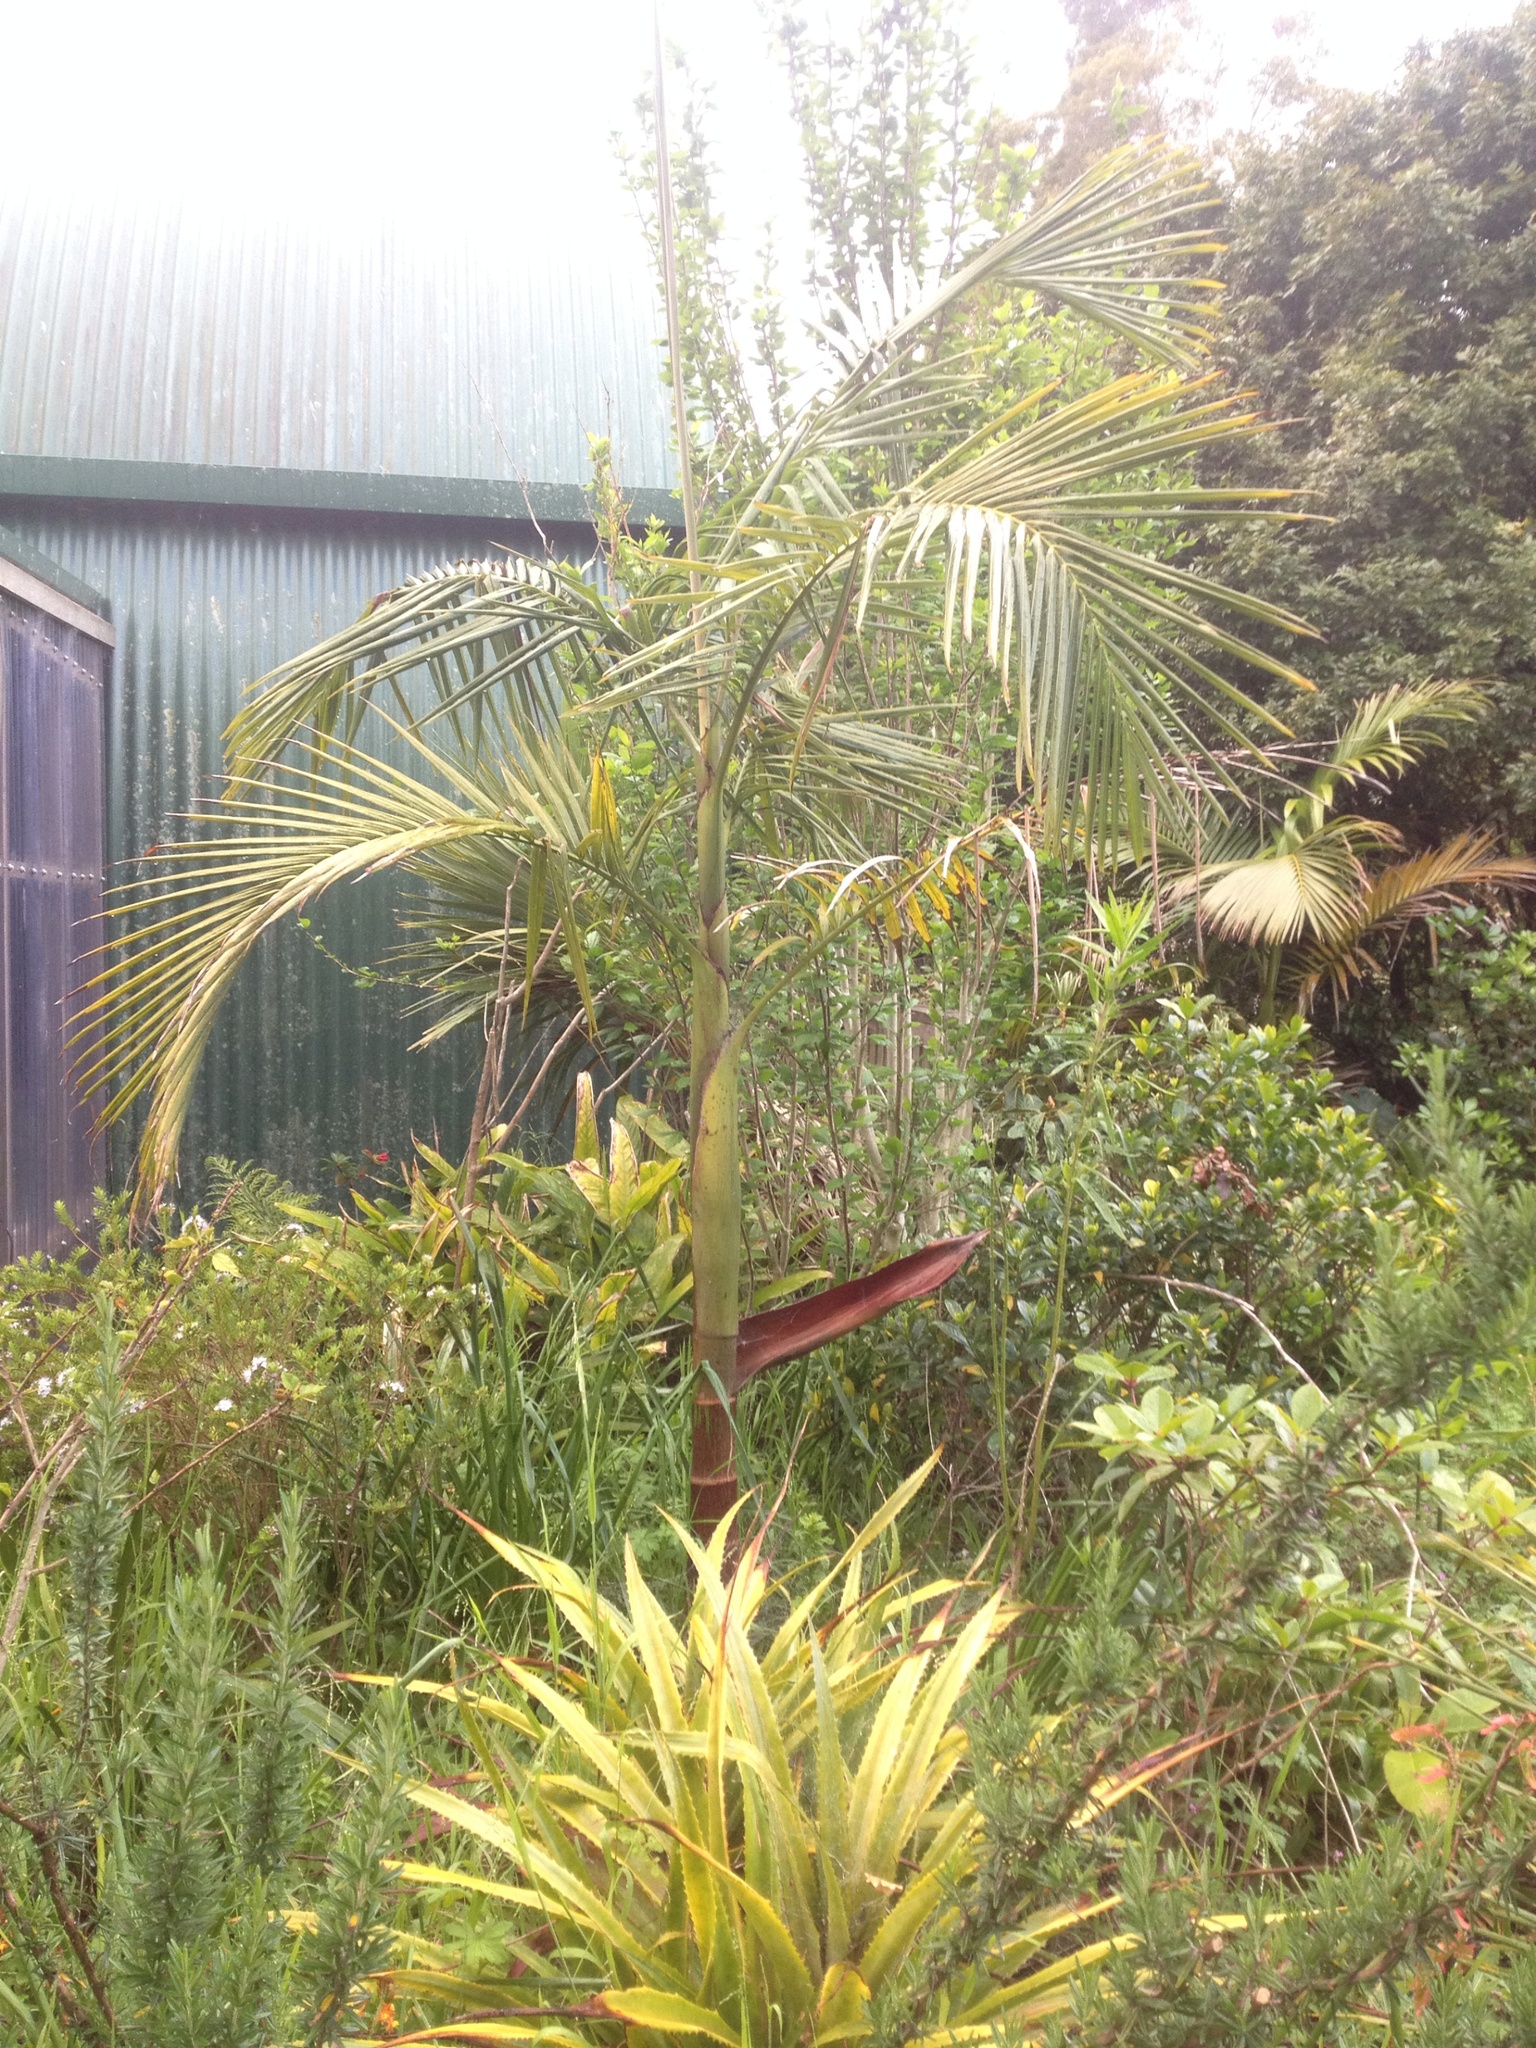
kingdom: Plantae
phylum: Tracheophyta
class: Liliopsida
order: Arecales
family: Arecaceae
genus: Archontophoenix
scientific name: Archontophoenix cunninghamiana
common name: Piccabeen bangalow palm
